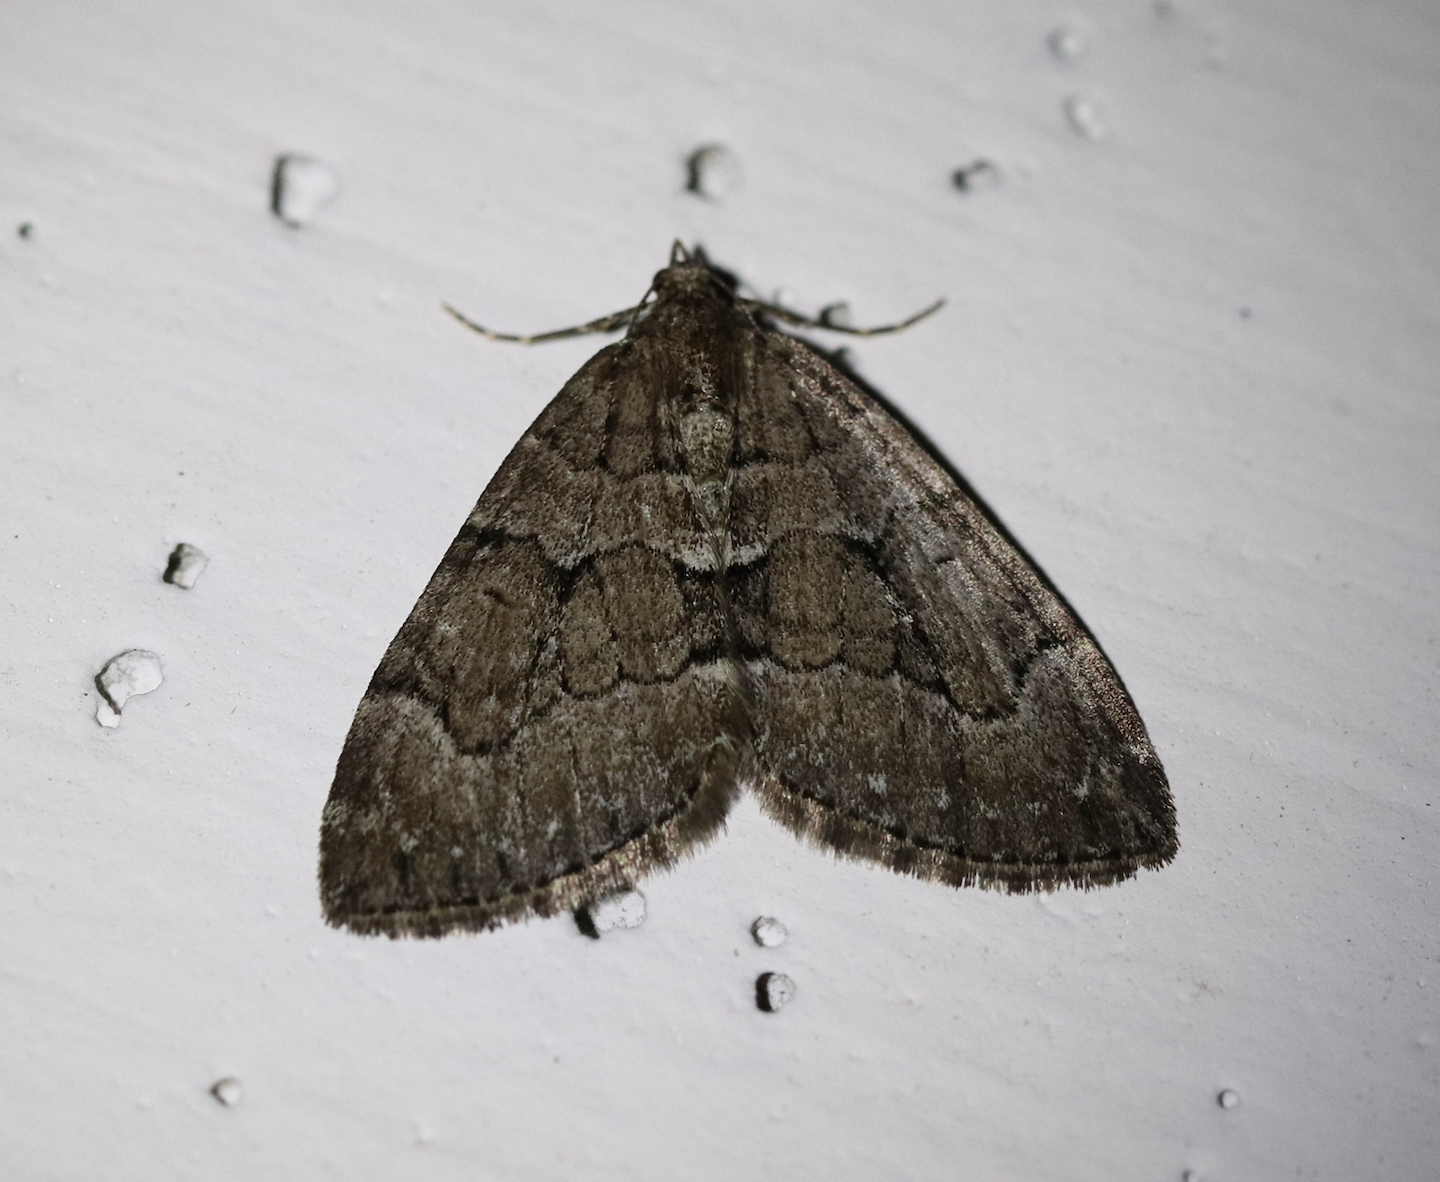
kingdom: Animalia
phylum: Arthropoda
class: Insecta
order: Lepidoptera
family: Geometridae
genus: Thera
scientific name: Thera cognata
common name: Chestnut-coloured carpet
